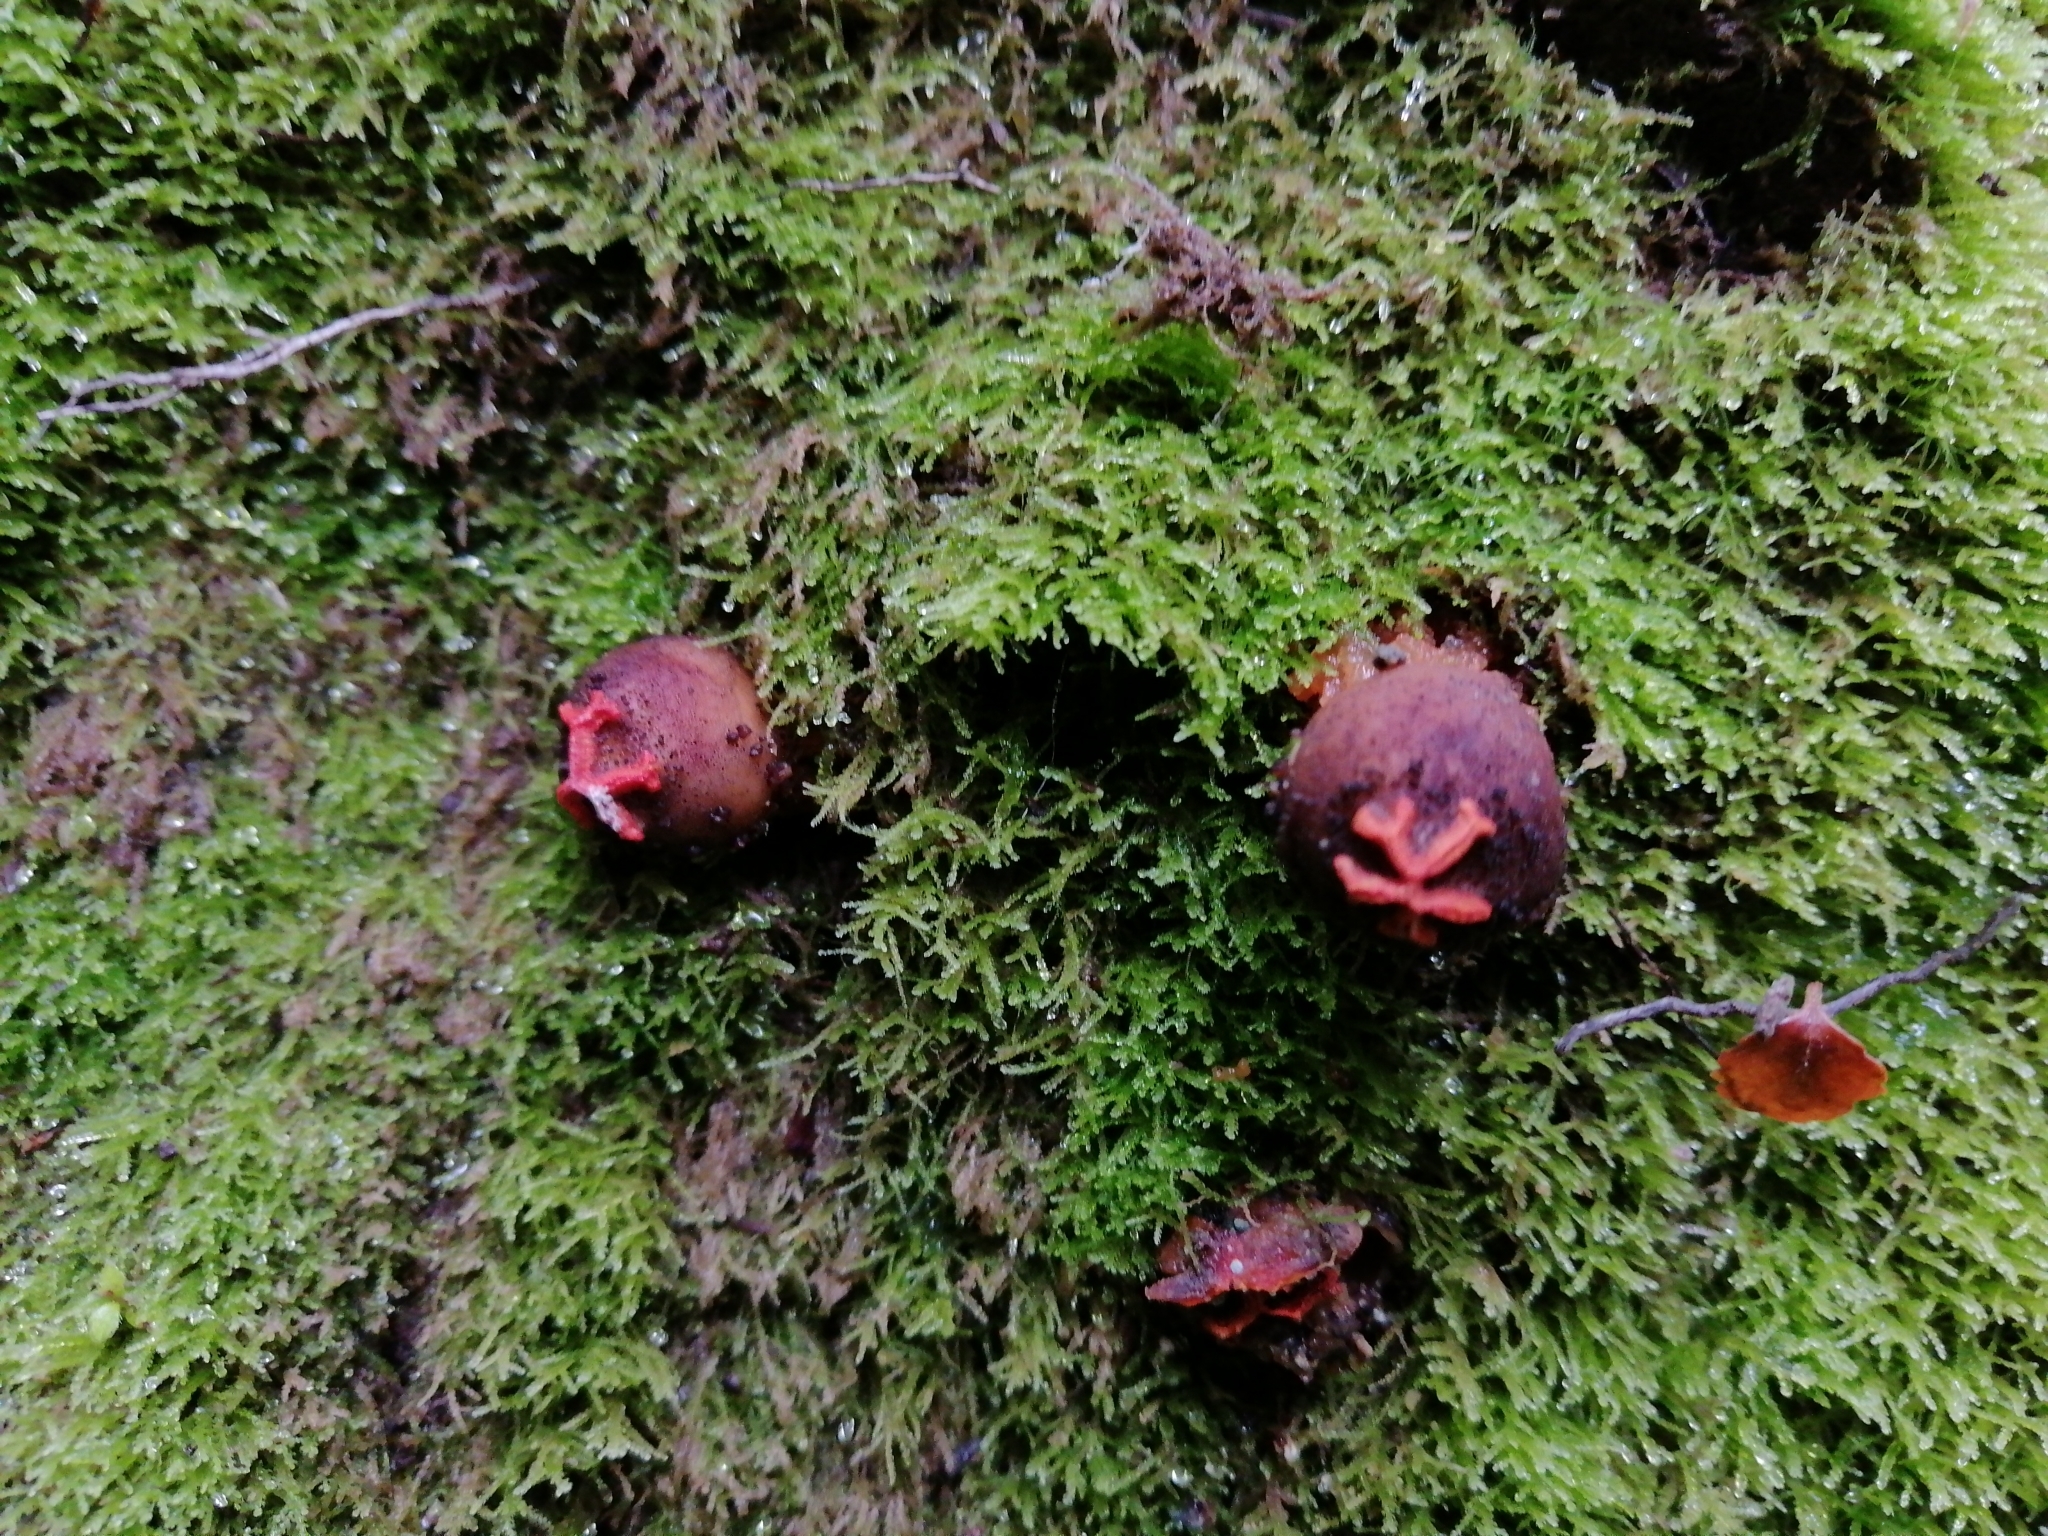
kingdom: Fungi
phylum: Basidiomycota
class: Agaricomycetes
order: Boletales
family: Calostomataceae
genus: Calostoma
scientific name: Calostoma rodwayi
